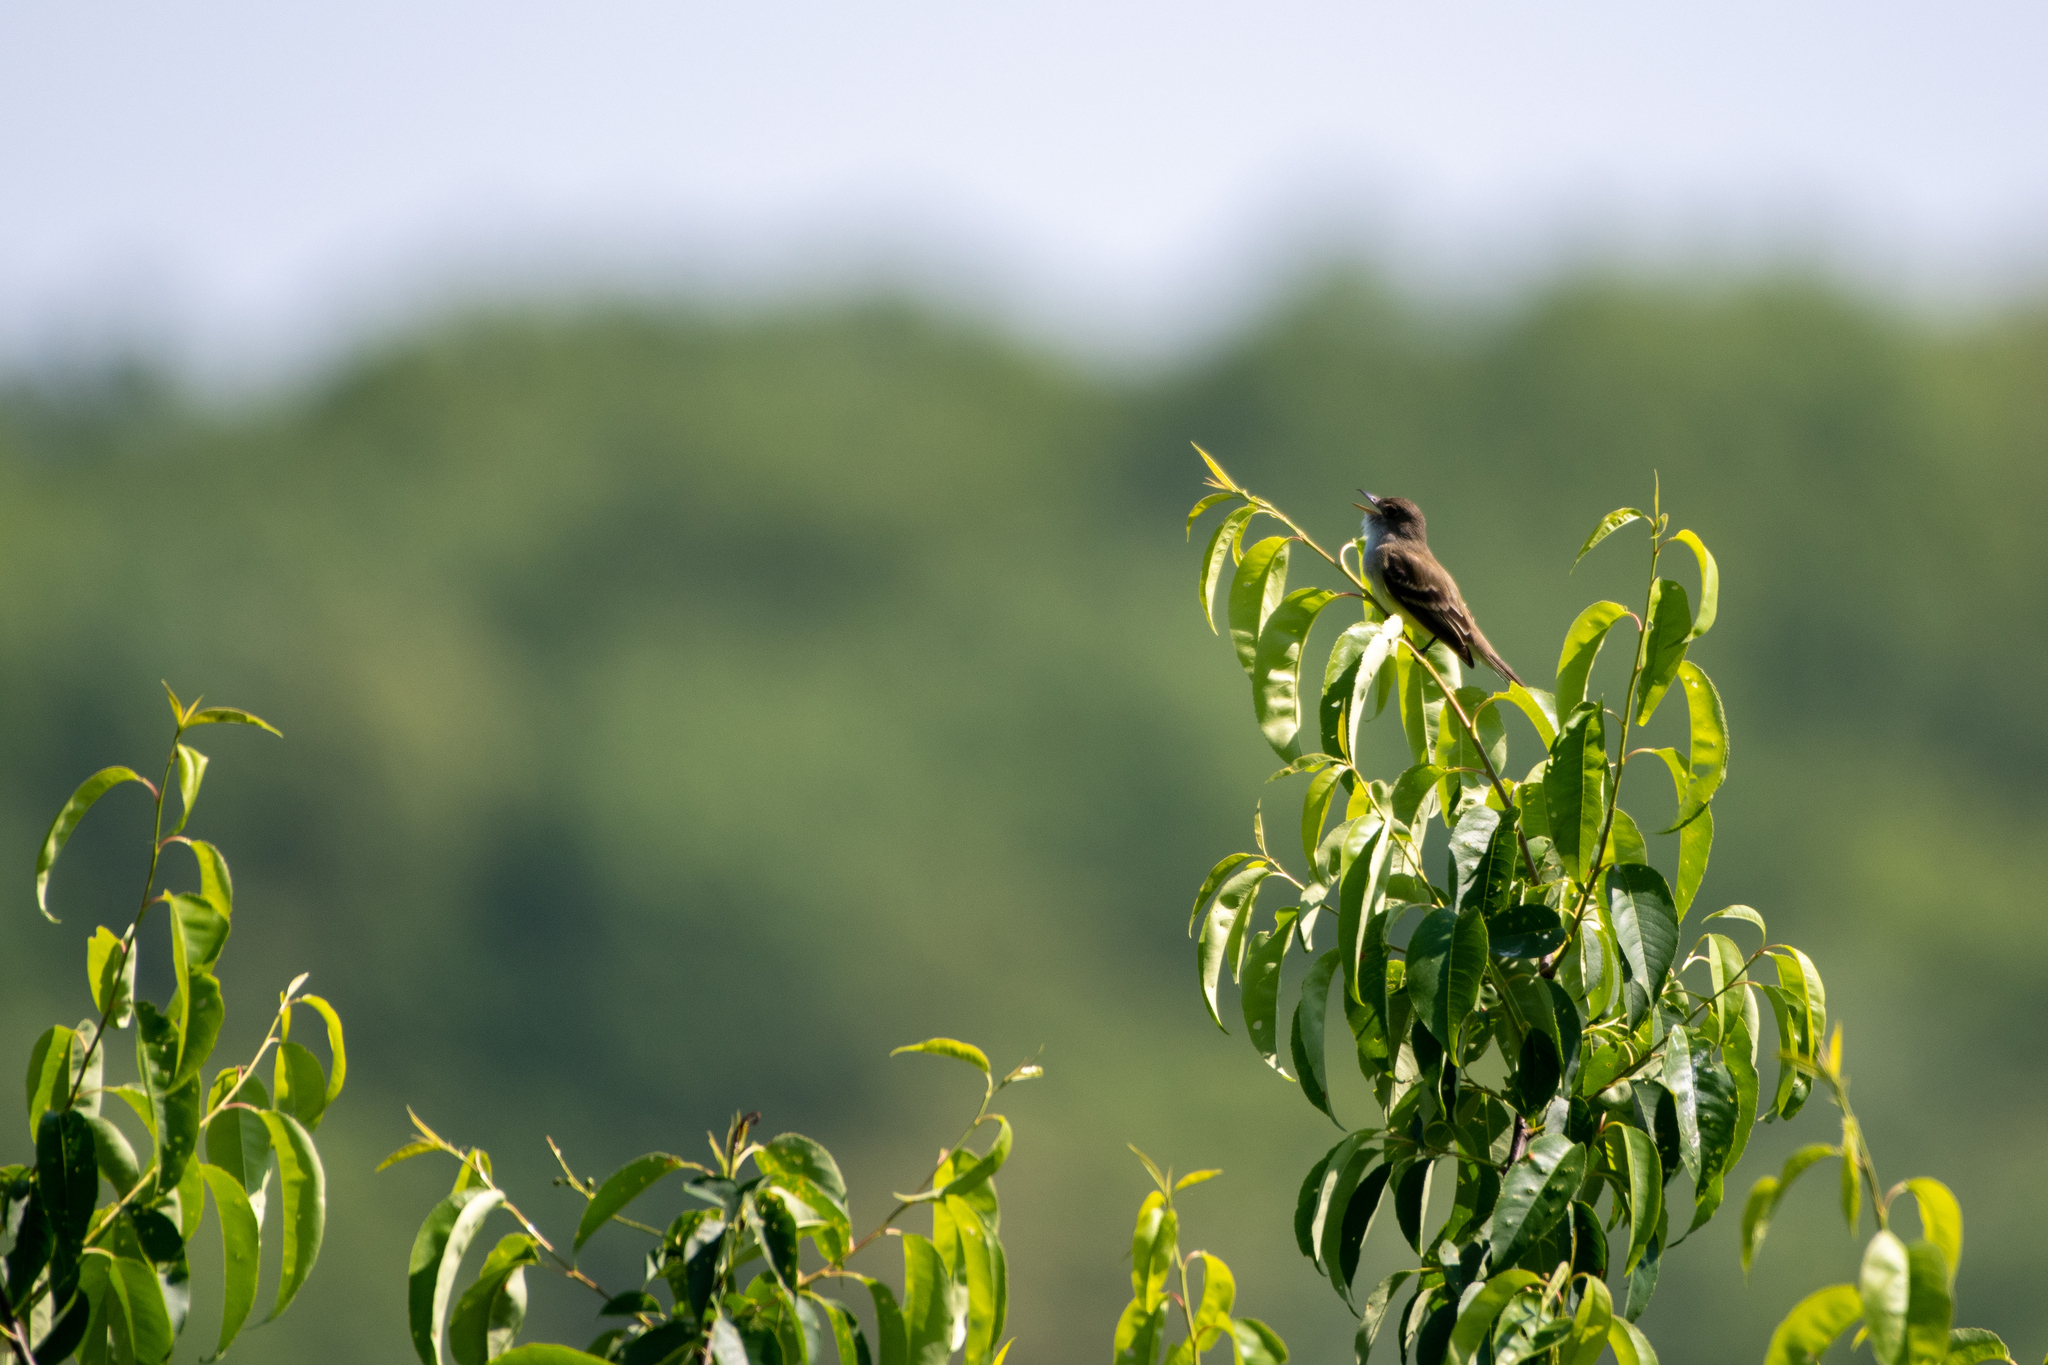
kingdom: Animalia
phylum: Chordata
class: Aves
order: Passeriformes
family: Tyrannidae
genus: Empidonax
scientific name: Empidonax traillii
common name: Willow flycatcher
